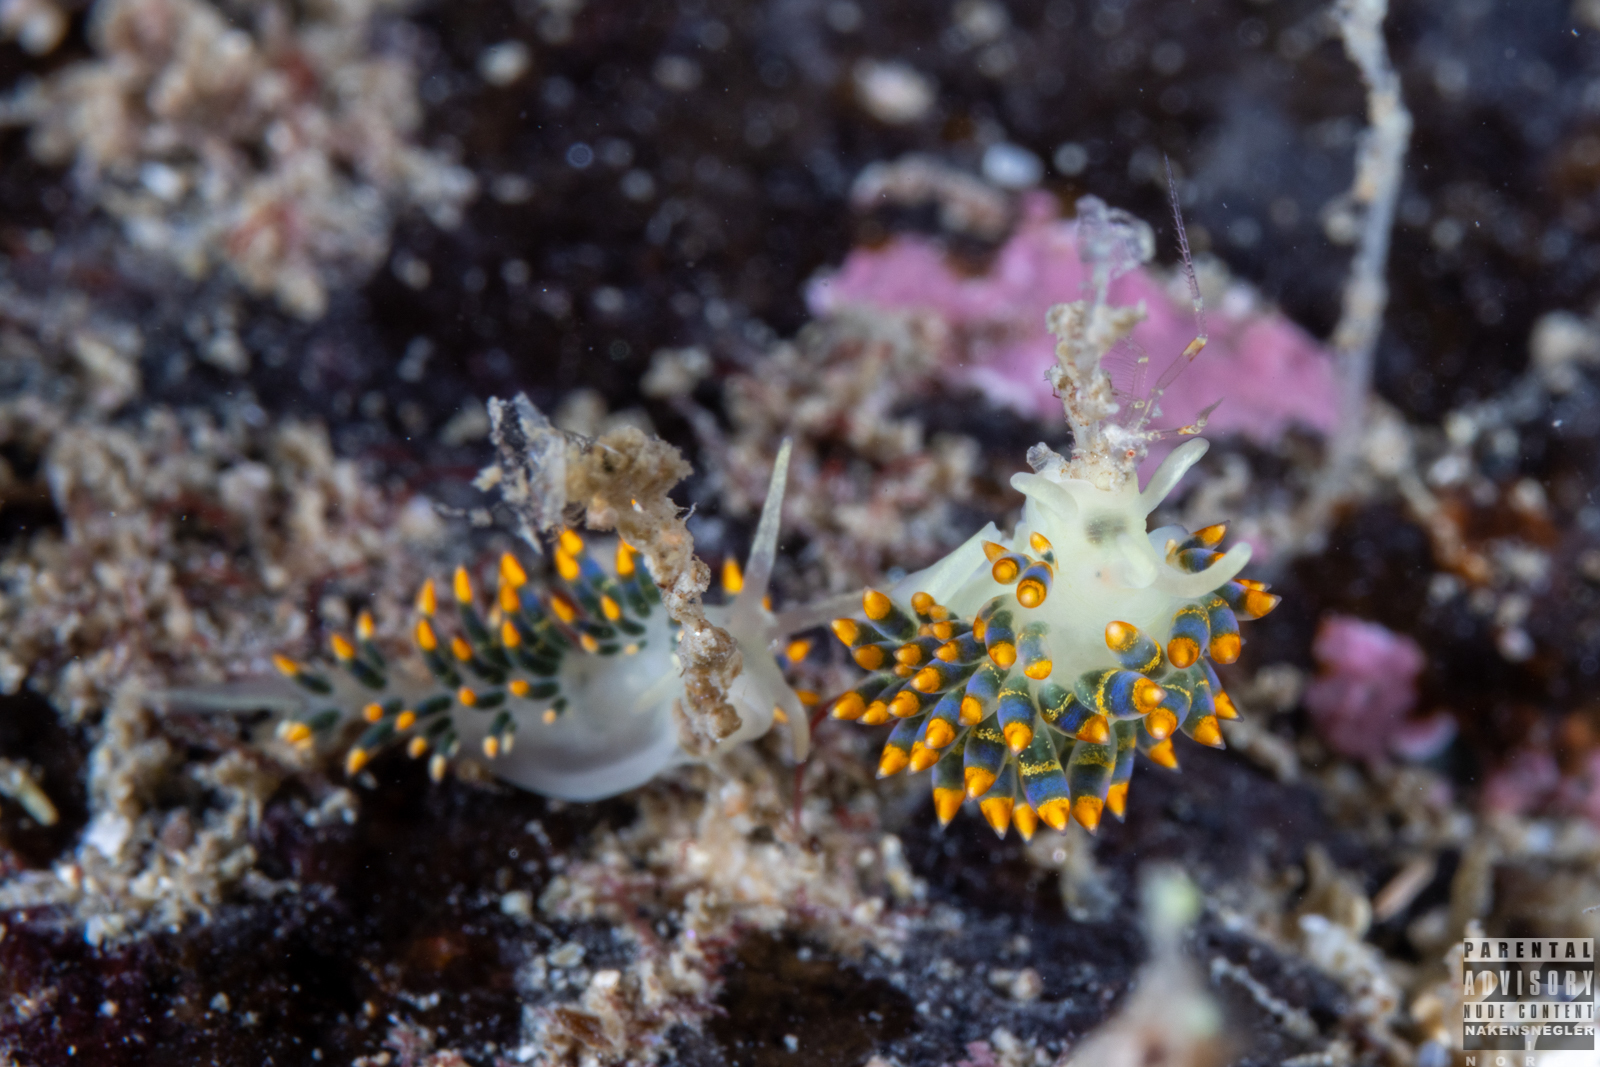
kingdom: Animalia
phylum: Mollusca
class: Gastropoda
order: Nudibranchia
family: Trinchesiidae
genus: Trinchesia
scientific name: Trinchesia cuanensis
